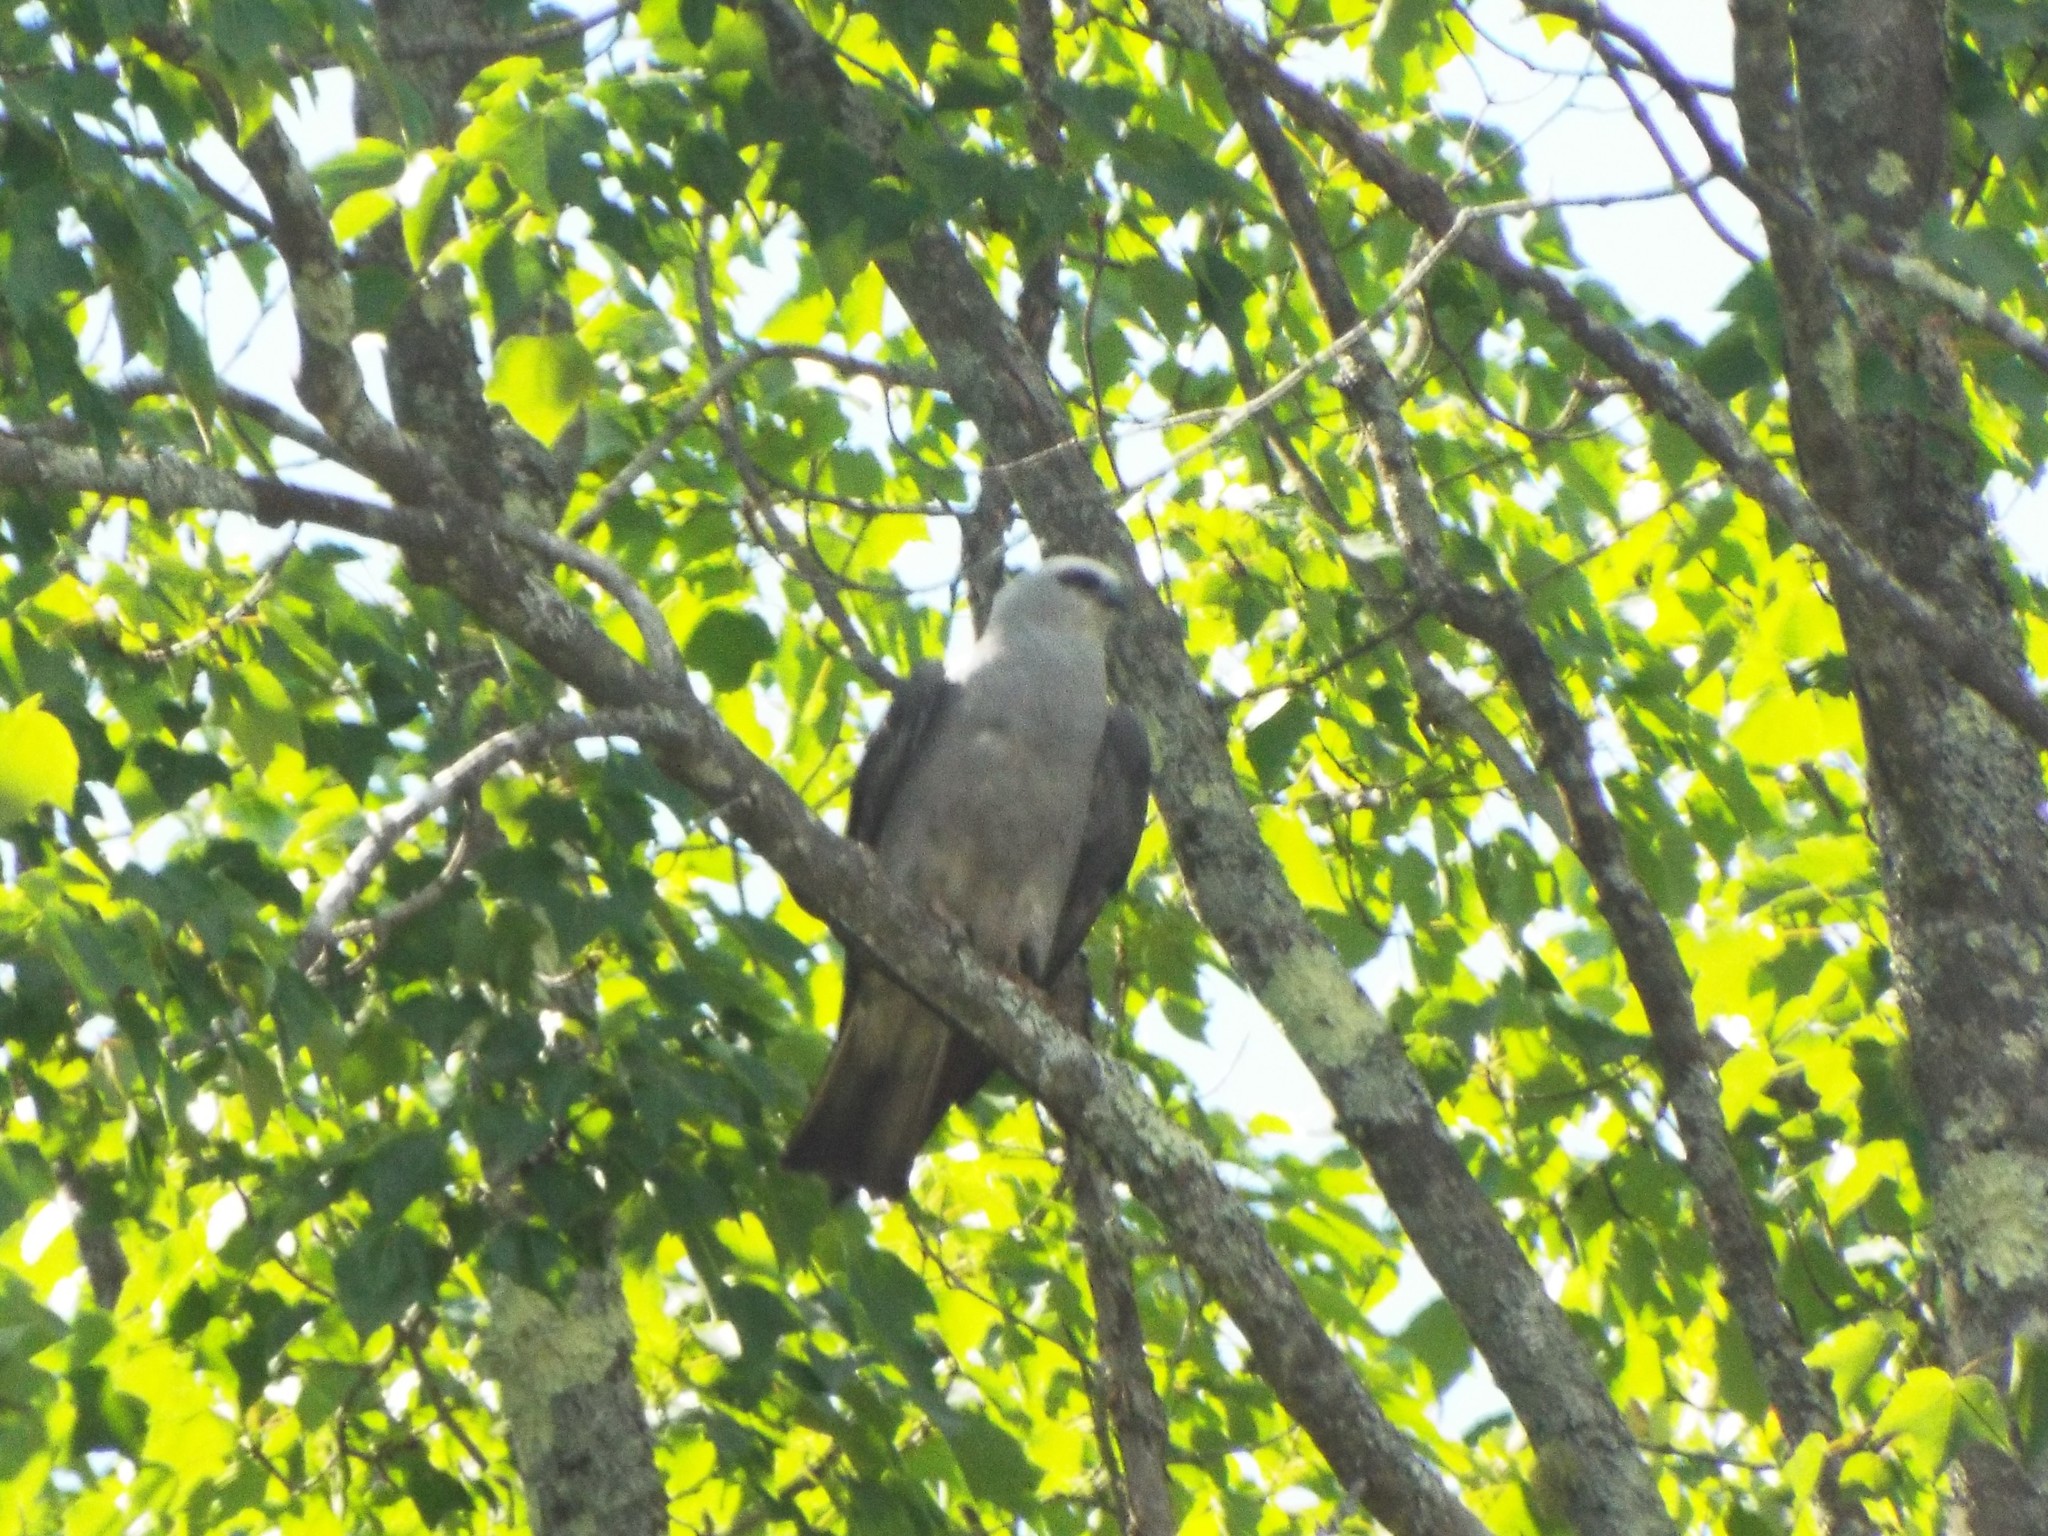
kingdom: Animalia
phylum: Chordata
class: Aves
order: Accipitriformes
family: Accipitridae
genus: Ictinia
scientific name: Ictinia mississippiensis
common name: Mississippi kite
